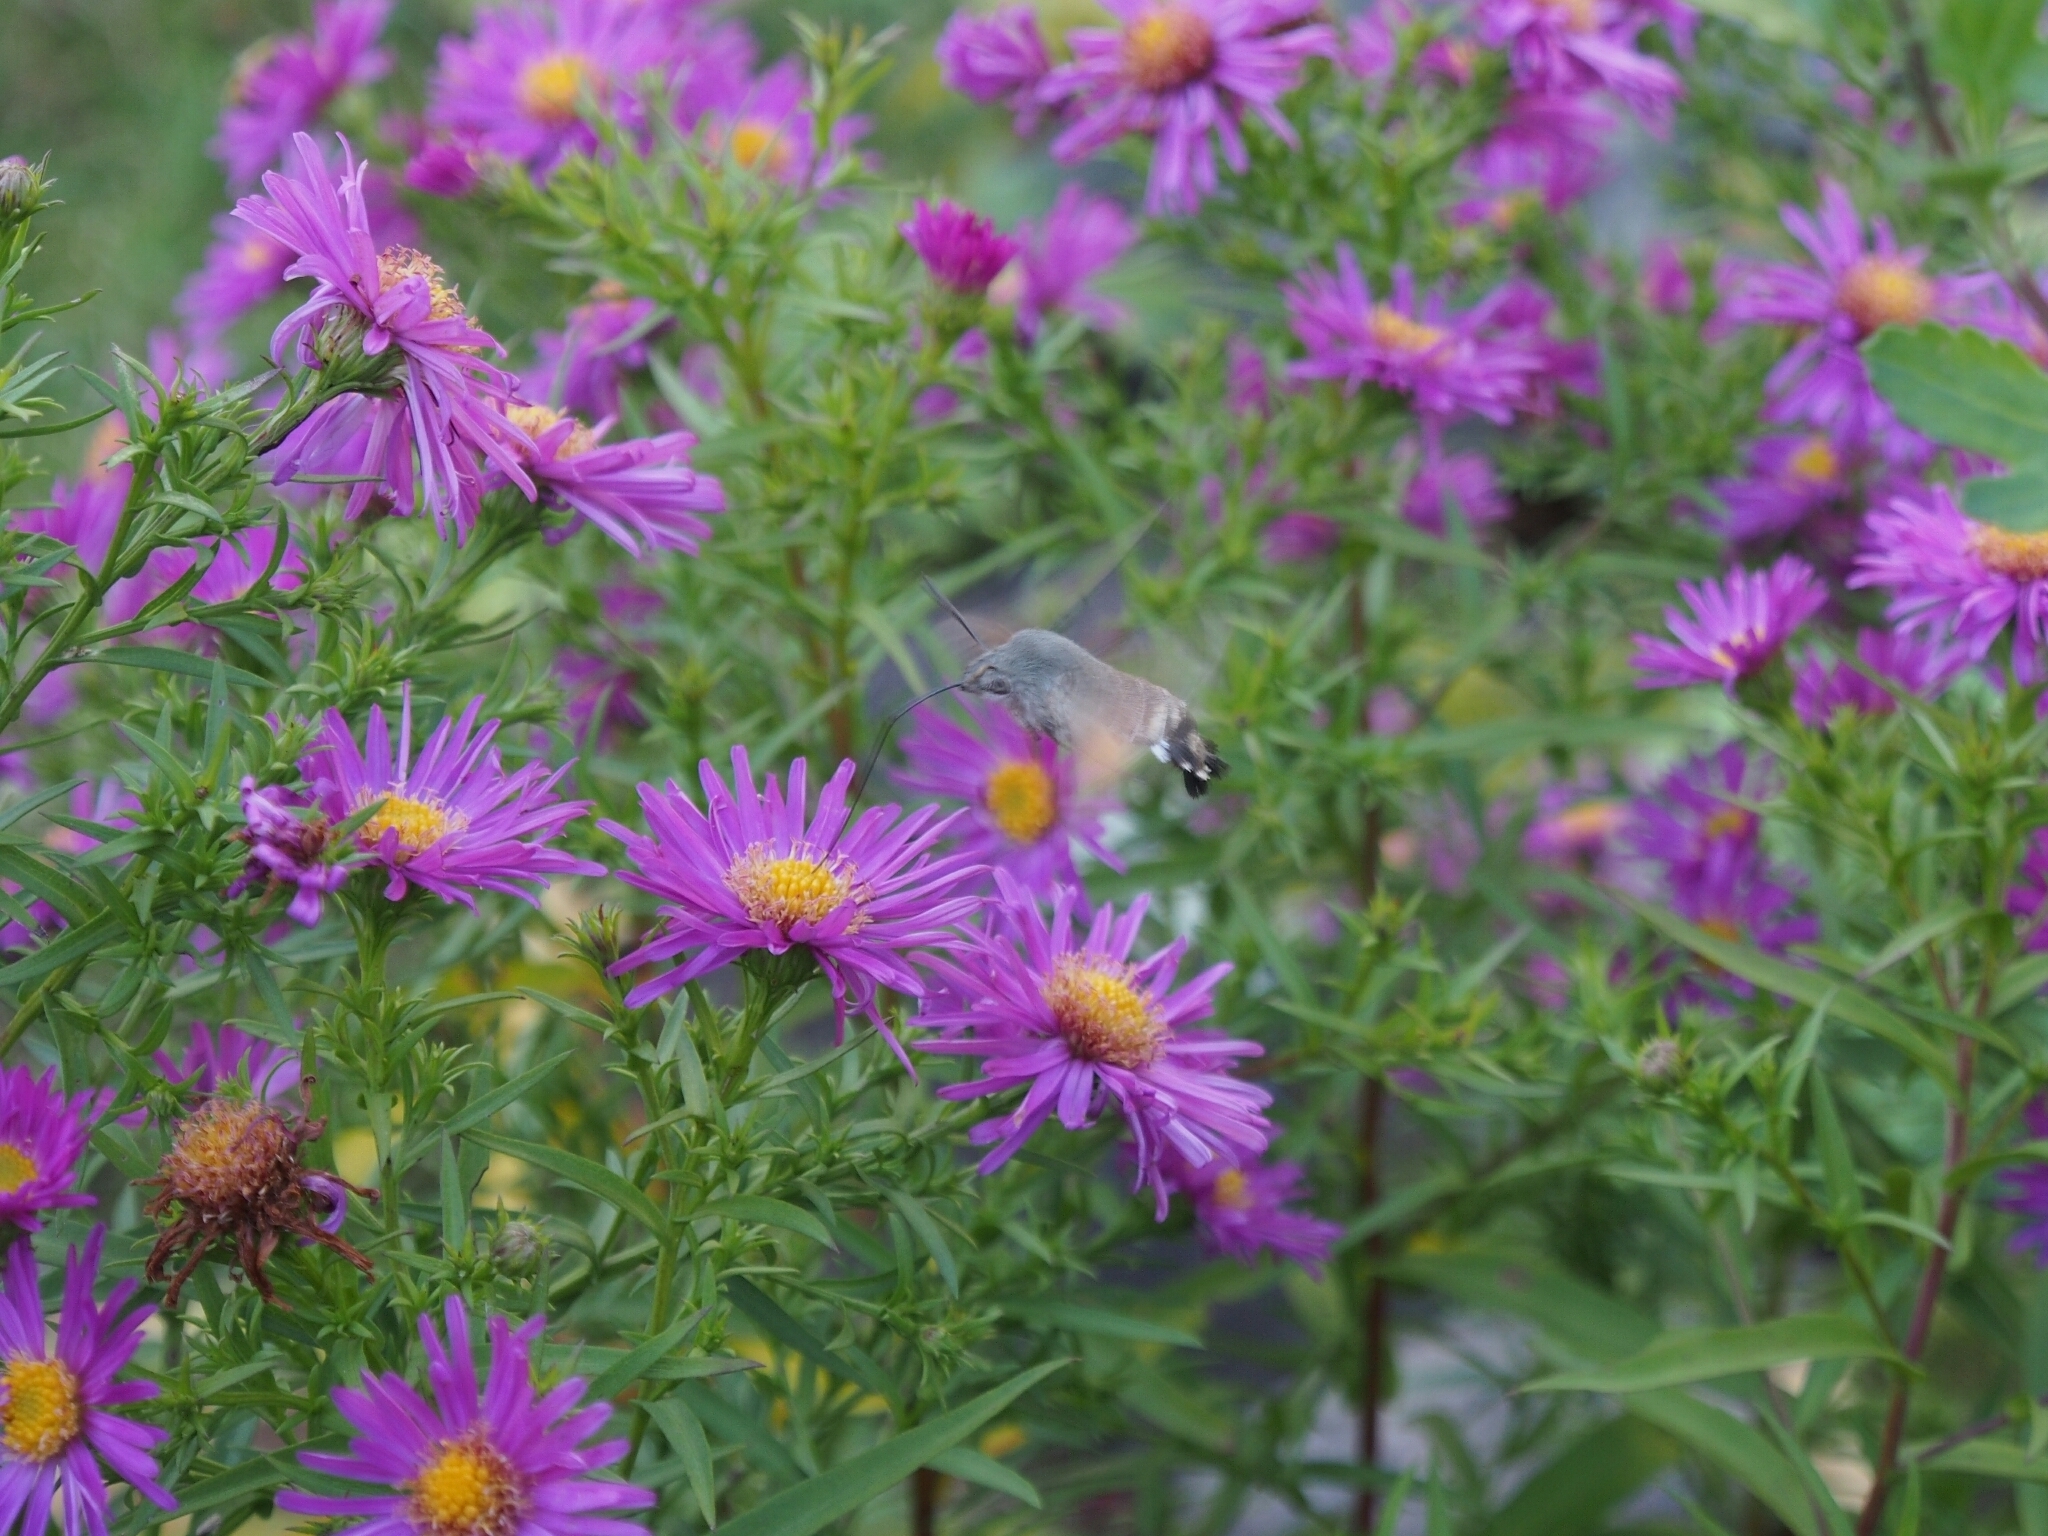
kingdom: Animalia
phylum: Arthropoda
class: Insecta
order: Lepidoptera
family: Sphingidae
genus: Macroglossum
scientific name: Macroglossum stellatarum
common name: Humming-bird hawk-moth
